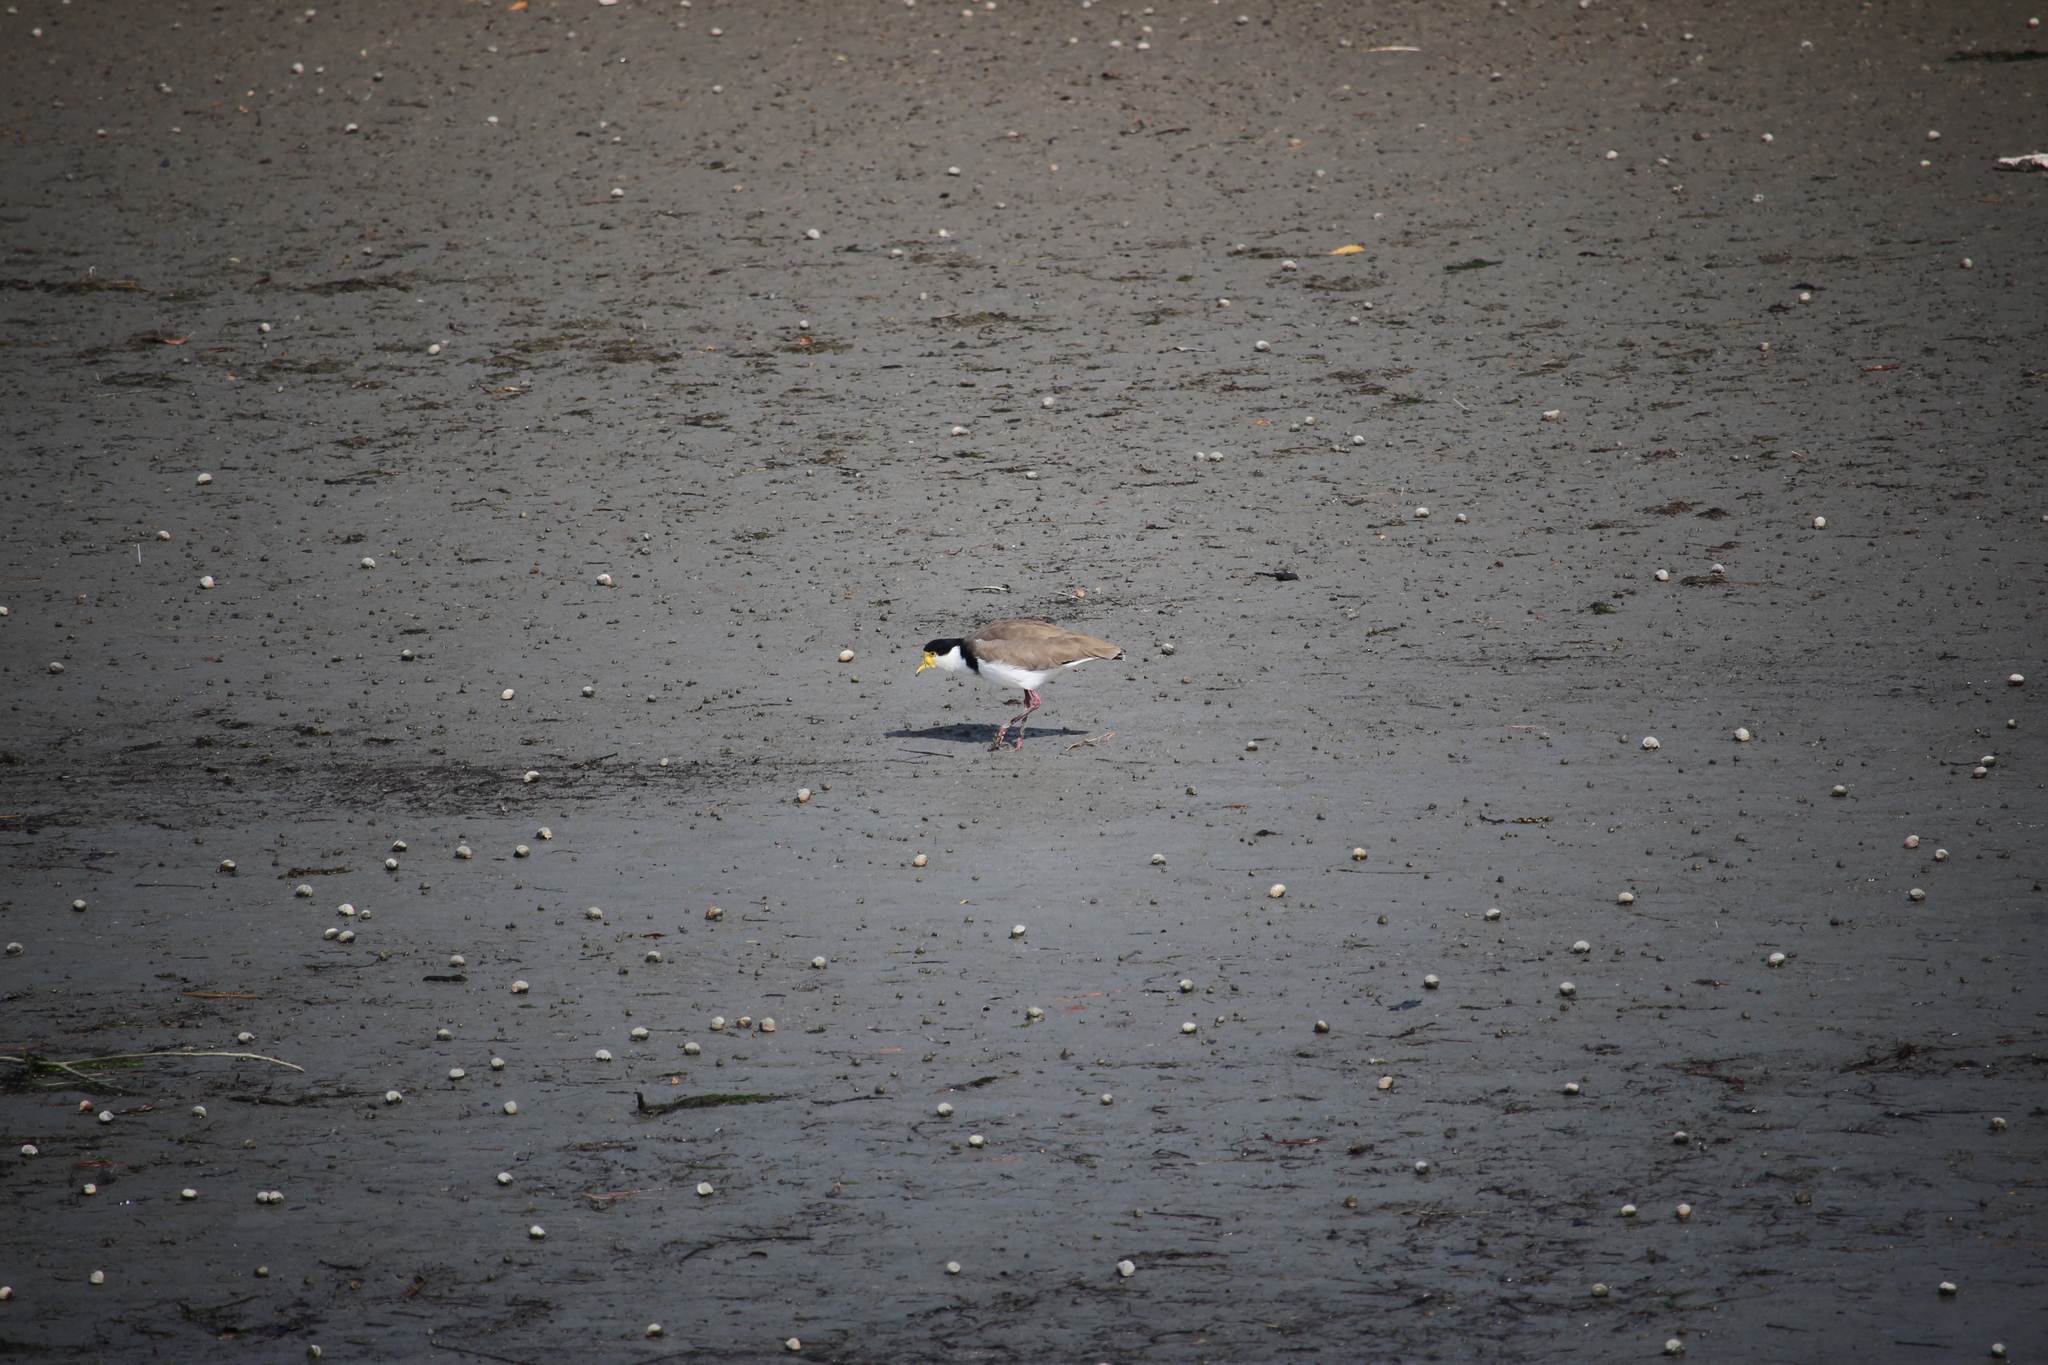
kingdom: Animalia
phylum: Chordata
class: Aves
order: Charadriiformes
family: Charadriidae
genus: Vanellus
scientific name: Vanellus miles
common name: Masked lapwing
